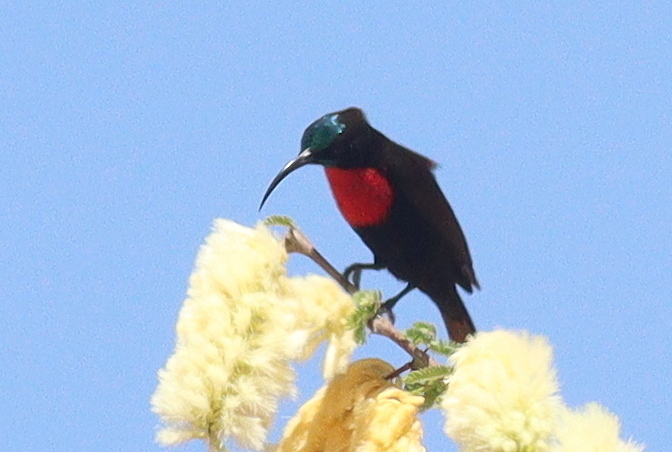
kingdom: Animalia
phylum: Chordata
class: Aves
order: Passeriformes
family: Nectariniidae
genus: Chalcomitra
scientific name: Chalcomitra senegalensis
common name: Scarlet-chested sunbird
